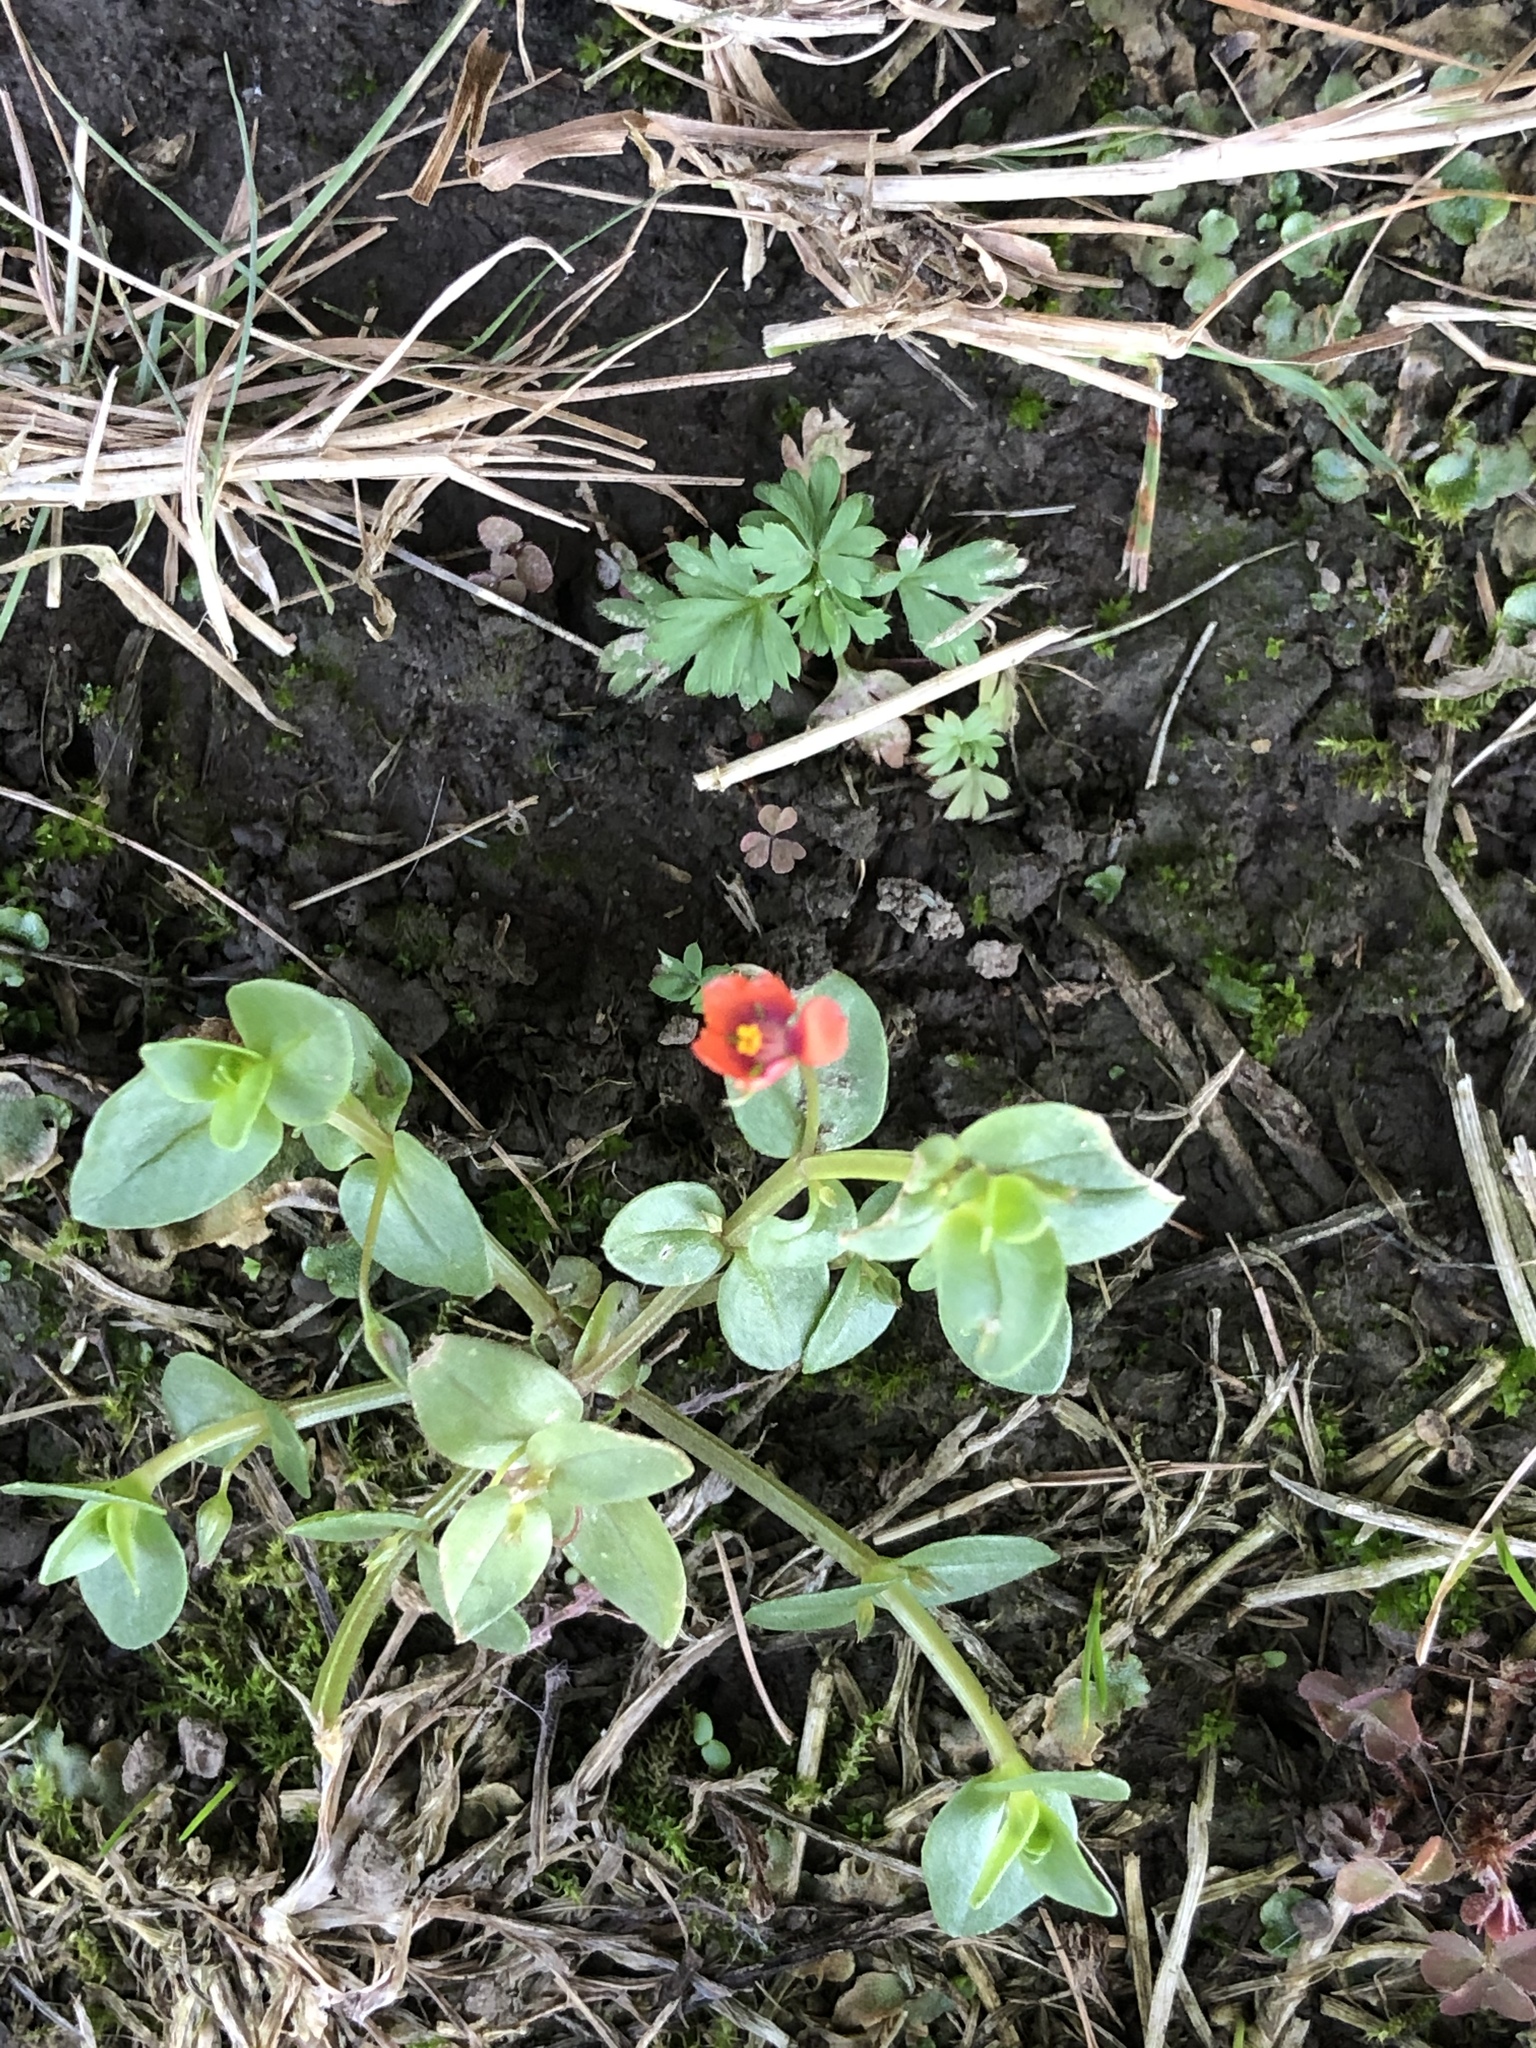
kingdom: Plantae
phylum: Tracheophyta
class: Magnoliopsida
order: Ericales
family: Primulaceae
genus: Lysimachia
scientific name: Lysimachia arvensis
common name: Scarlet pimpernel
